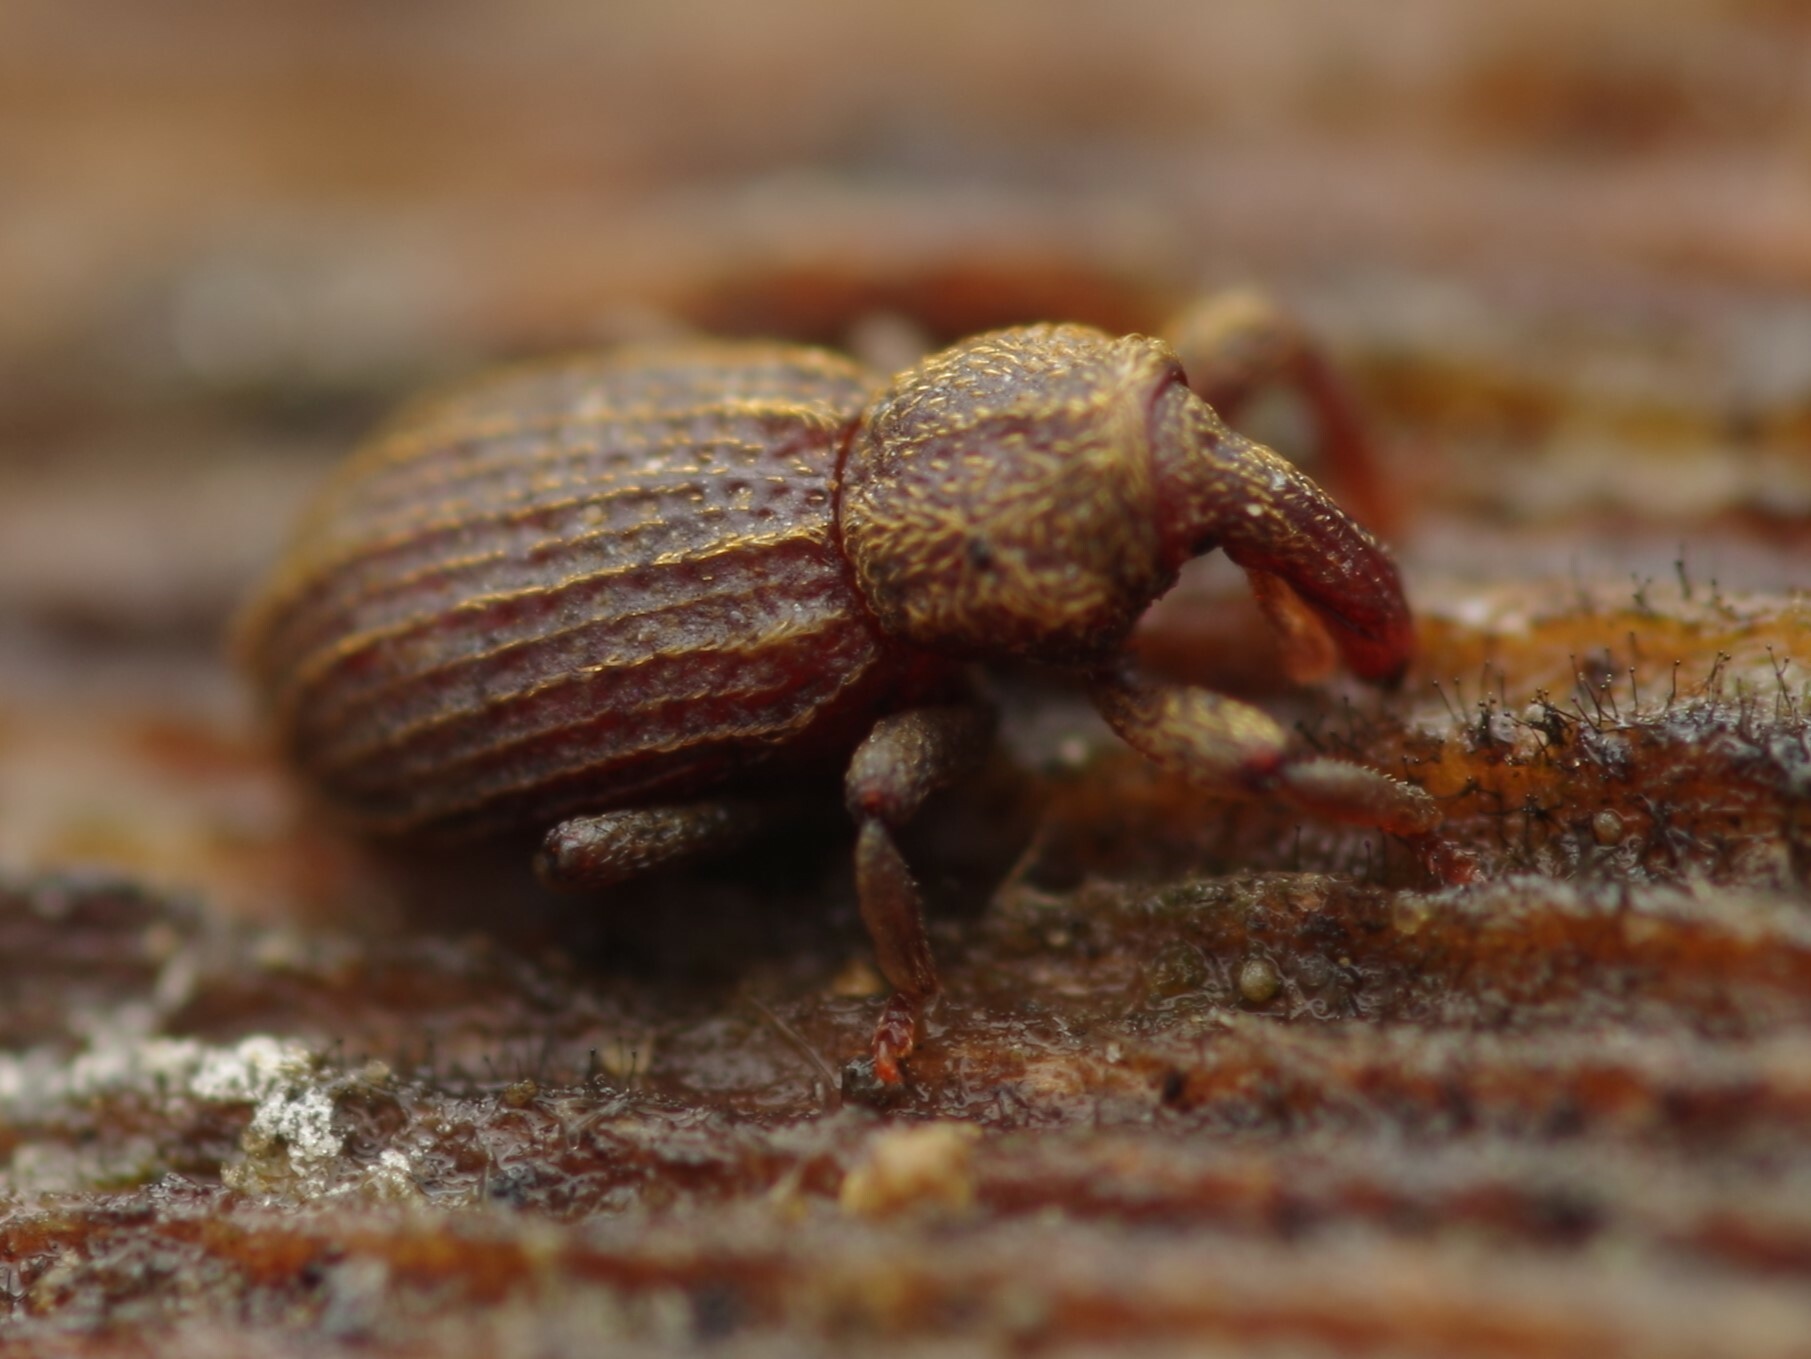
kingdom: Animalia
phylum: Arthropoda
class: Insecta
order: Coleoptera
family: Curculionidae
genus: Anchonidium
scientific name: Anchonidium unguiculare
